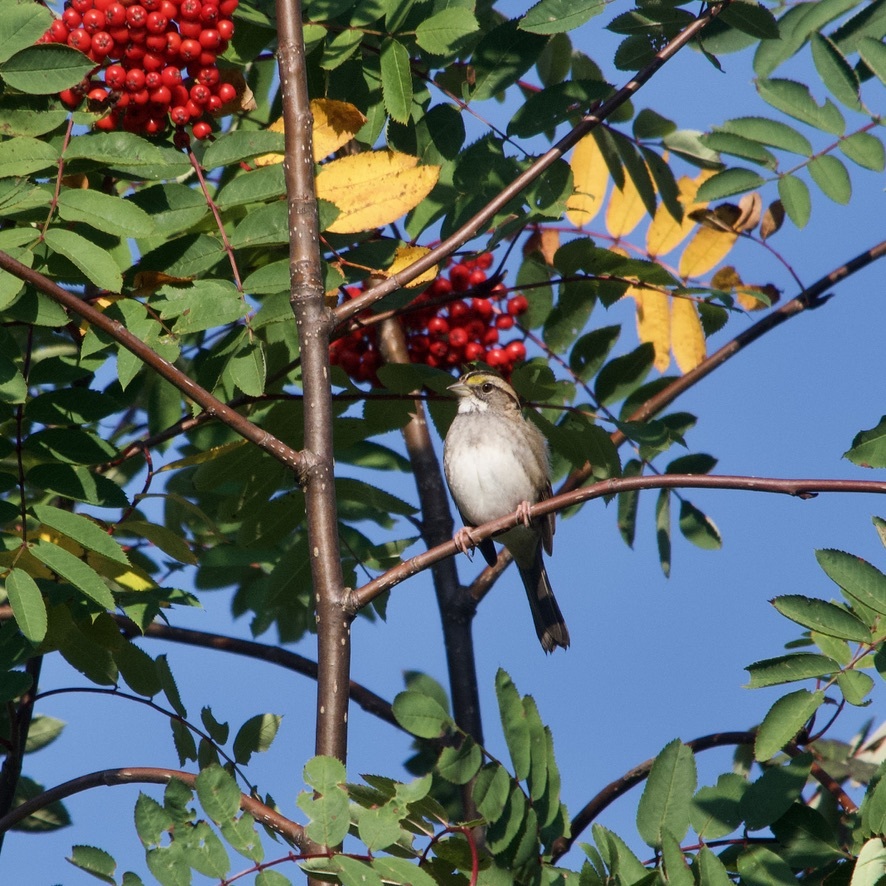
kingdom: Animalia
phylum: Chordata
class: Aves
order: Passeriformes
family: Passerellidae
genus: Zonotrichia
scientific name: Zonotrichia albicollis
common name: White-throated sparrow
